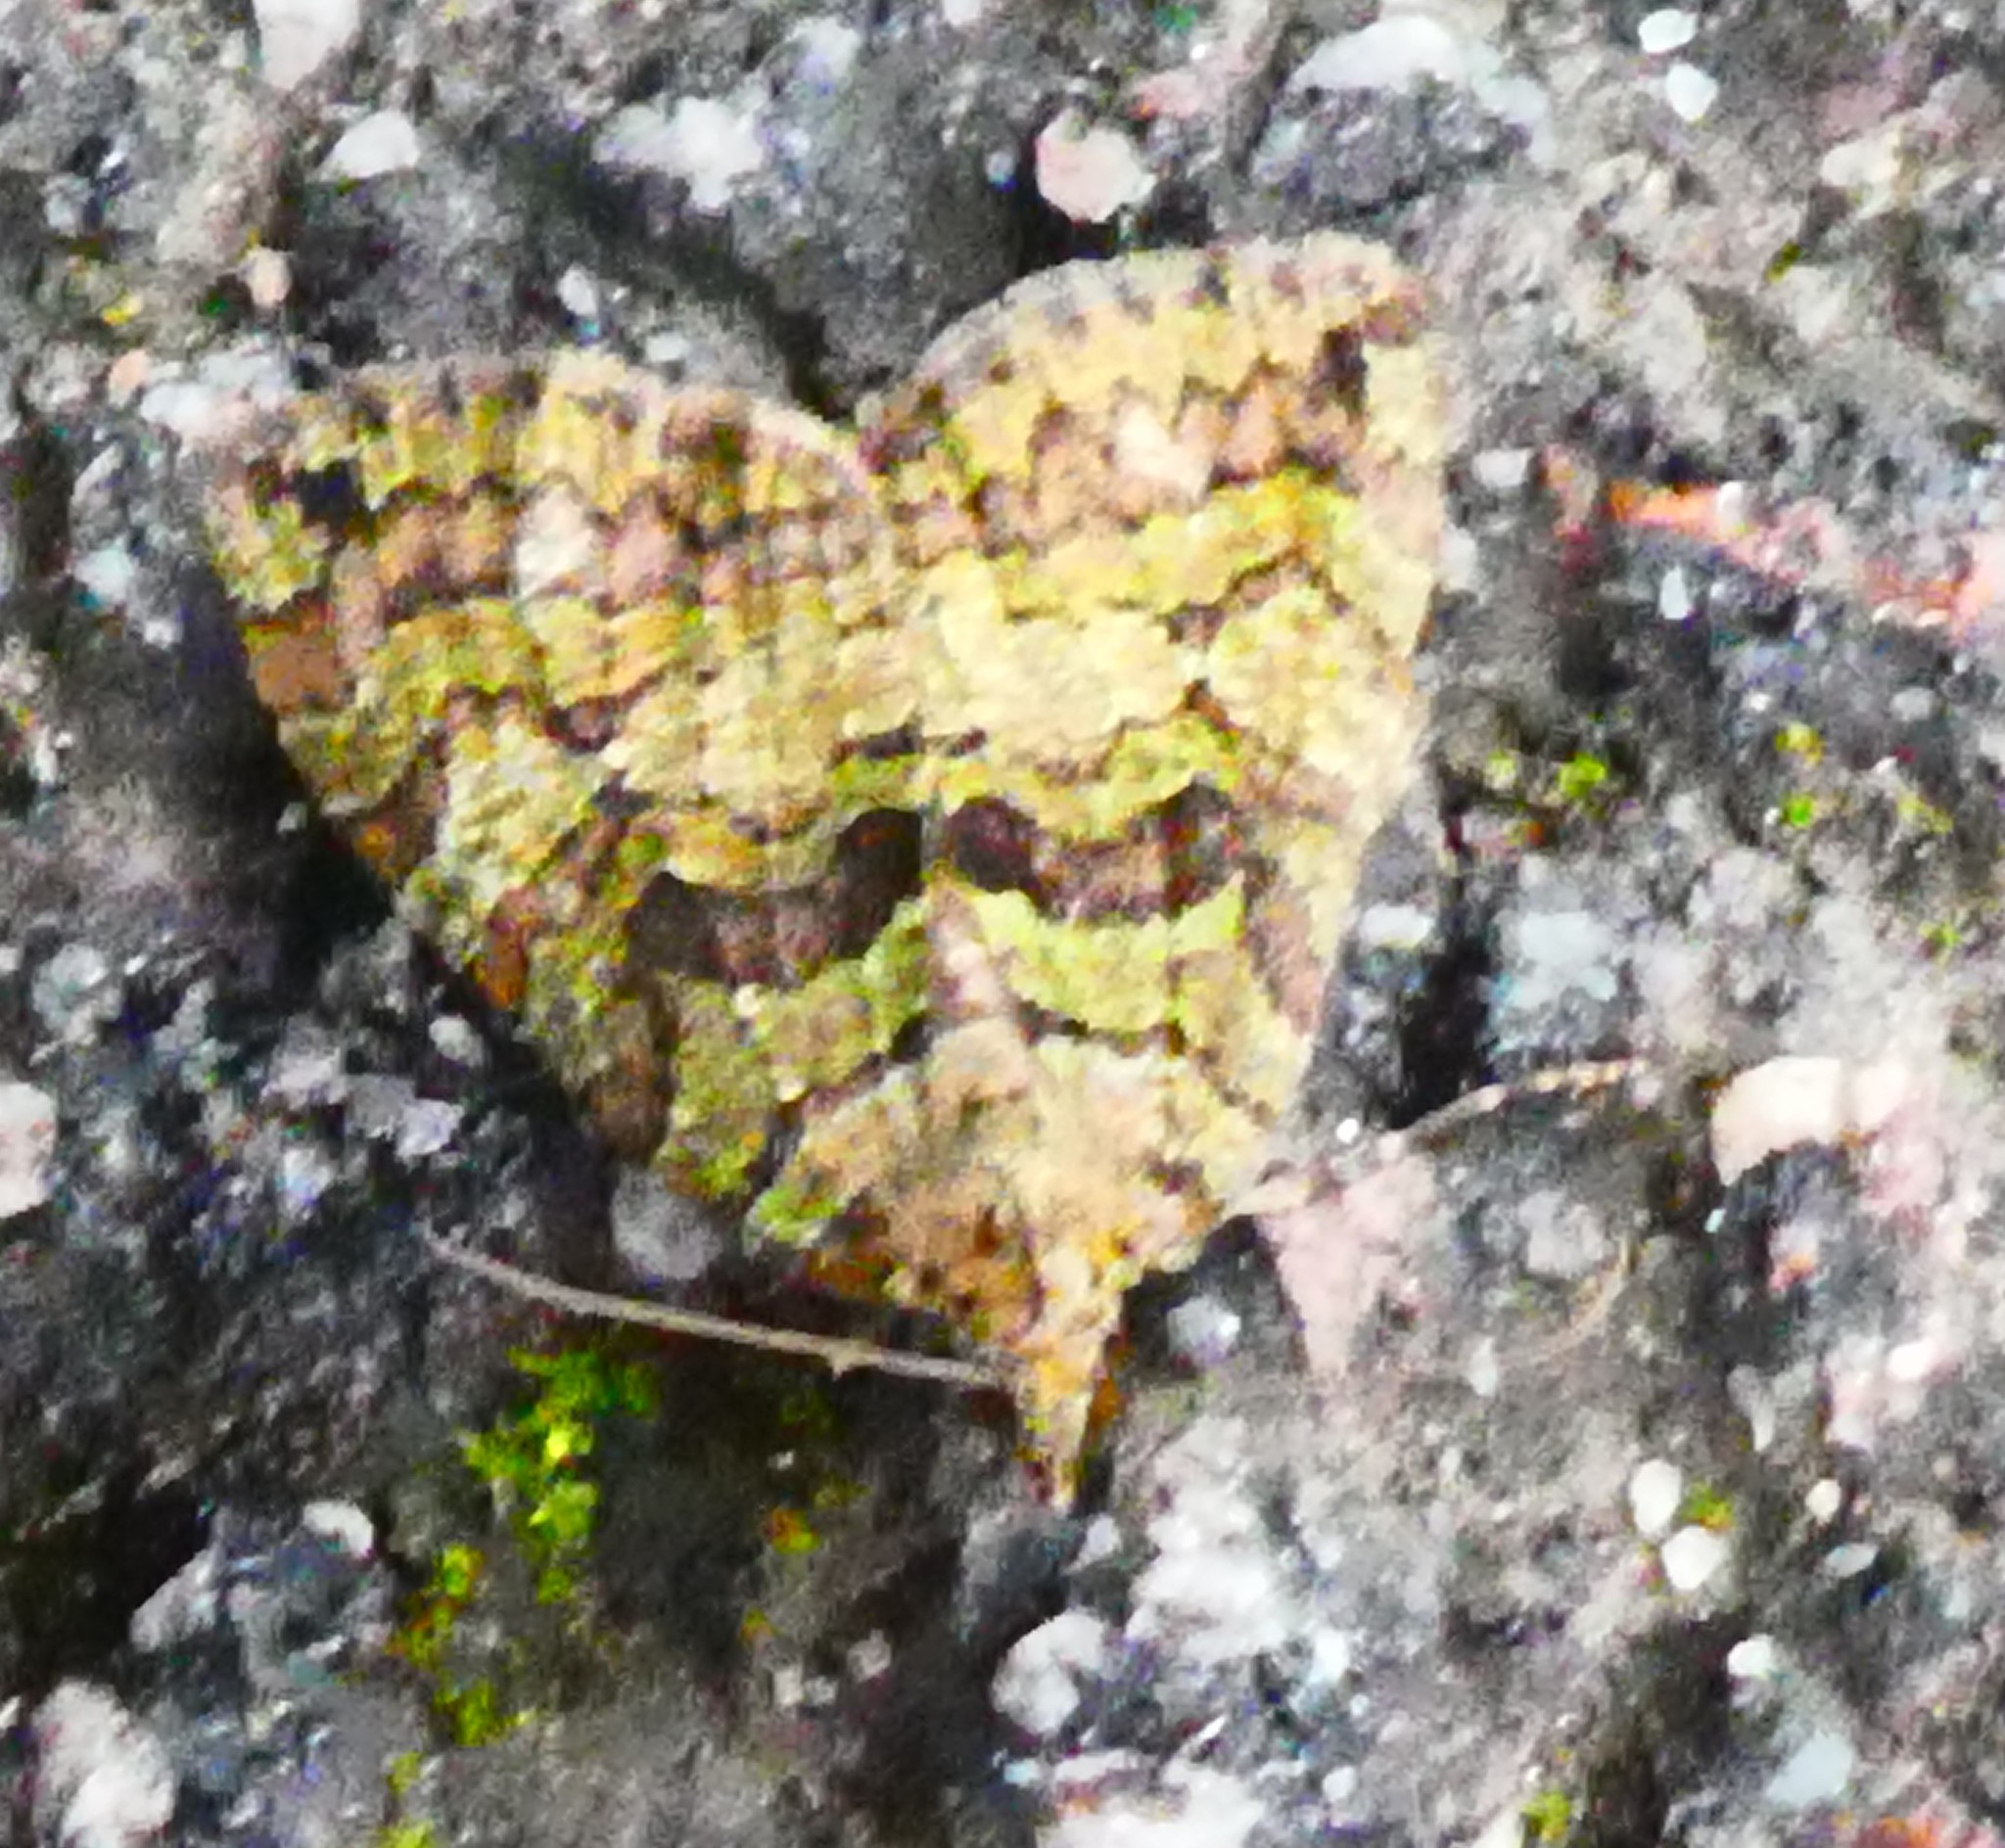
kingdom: Animalia
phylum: Arthropoda
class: Insecta
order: Lepidoptera
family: Geometridae
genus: Hydriomena
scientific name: Hydriomena furcata
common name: July highflyer
